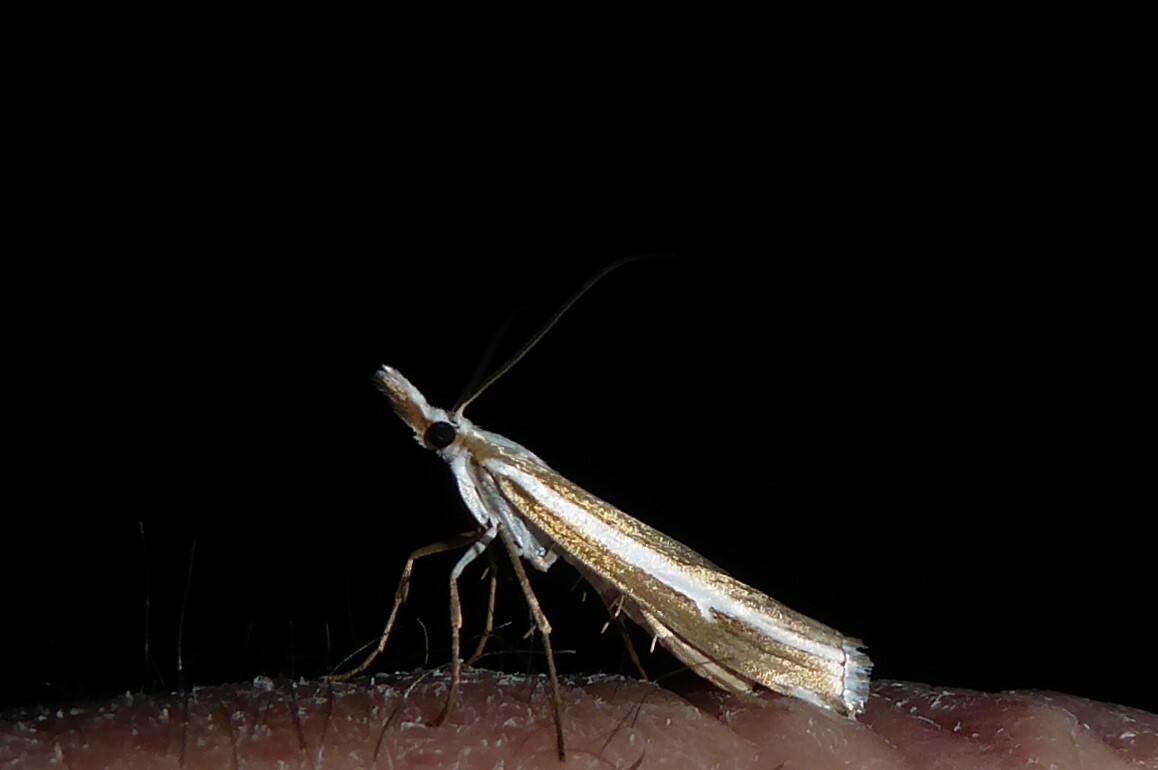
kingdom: Animalia
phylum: Arthropoda
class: Insecta
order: Lepidoptera
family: Crambidae
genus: Orocrambus
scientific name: Orocrambus vittellus
